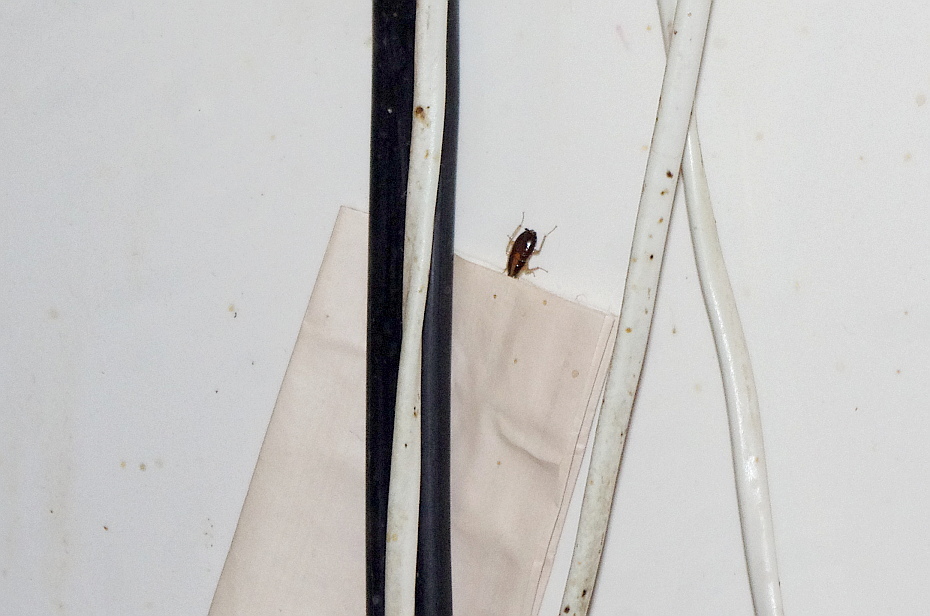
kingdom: Animalia
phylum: Arthropoda
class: Insecta
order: Blattodea
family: Ectobiidae
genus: Blattella
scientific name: Blattella germanica
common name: German cockroach
